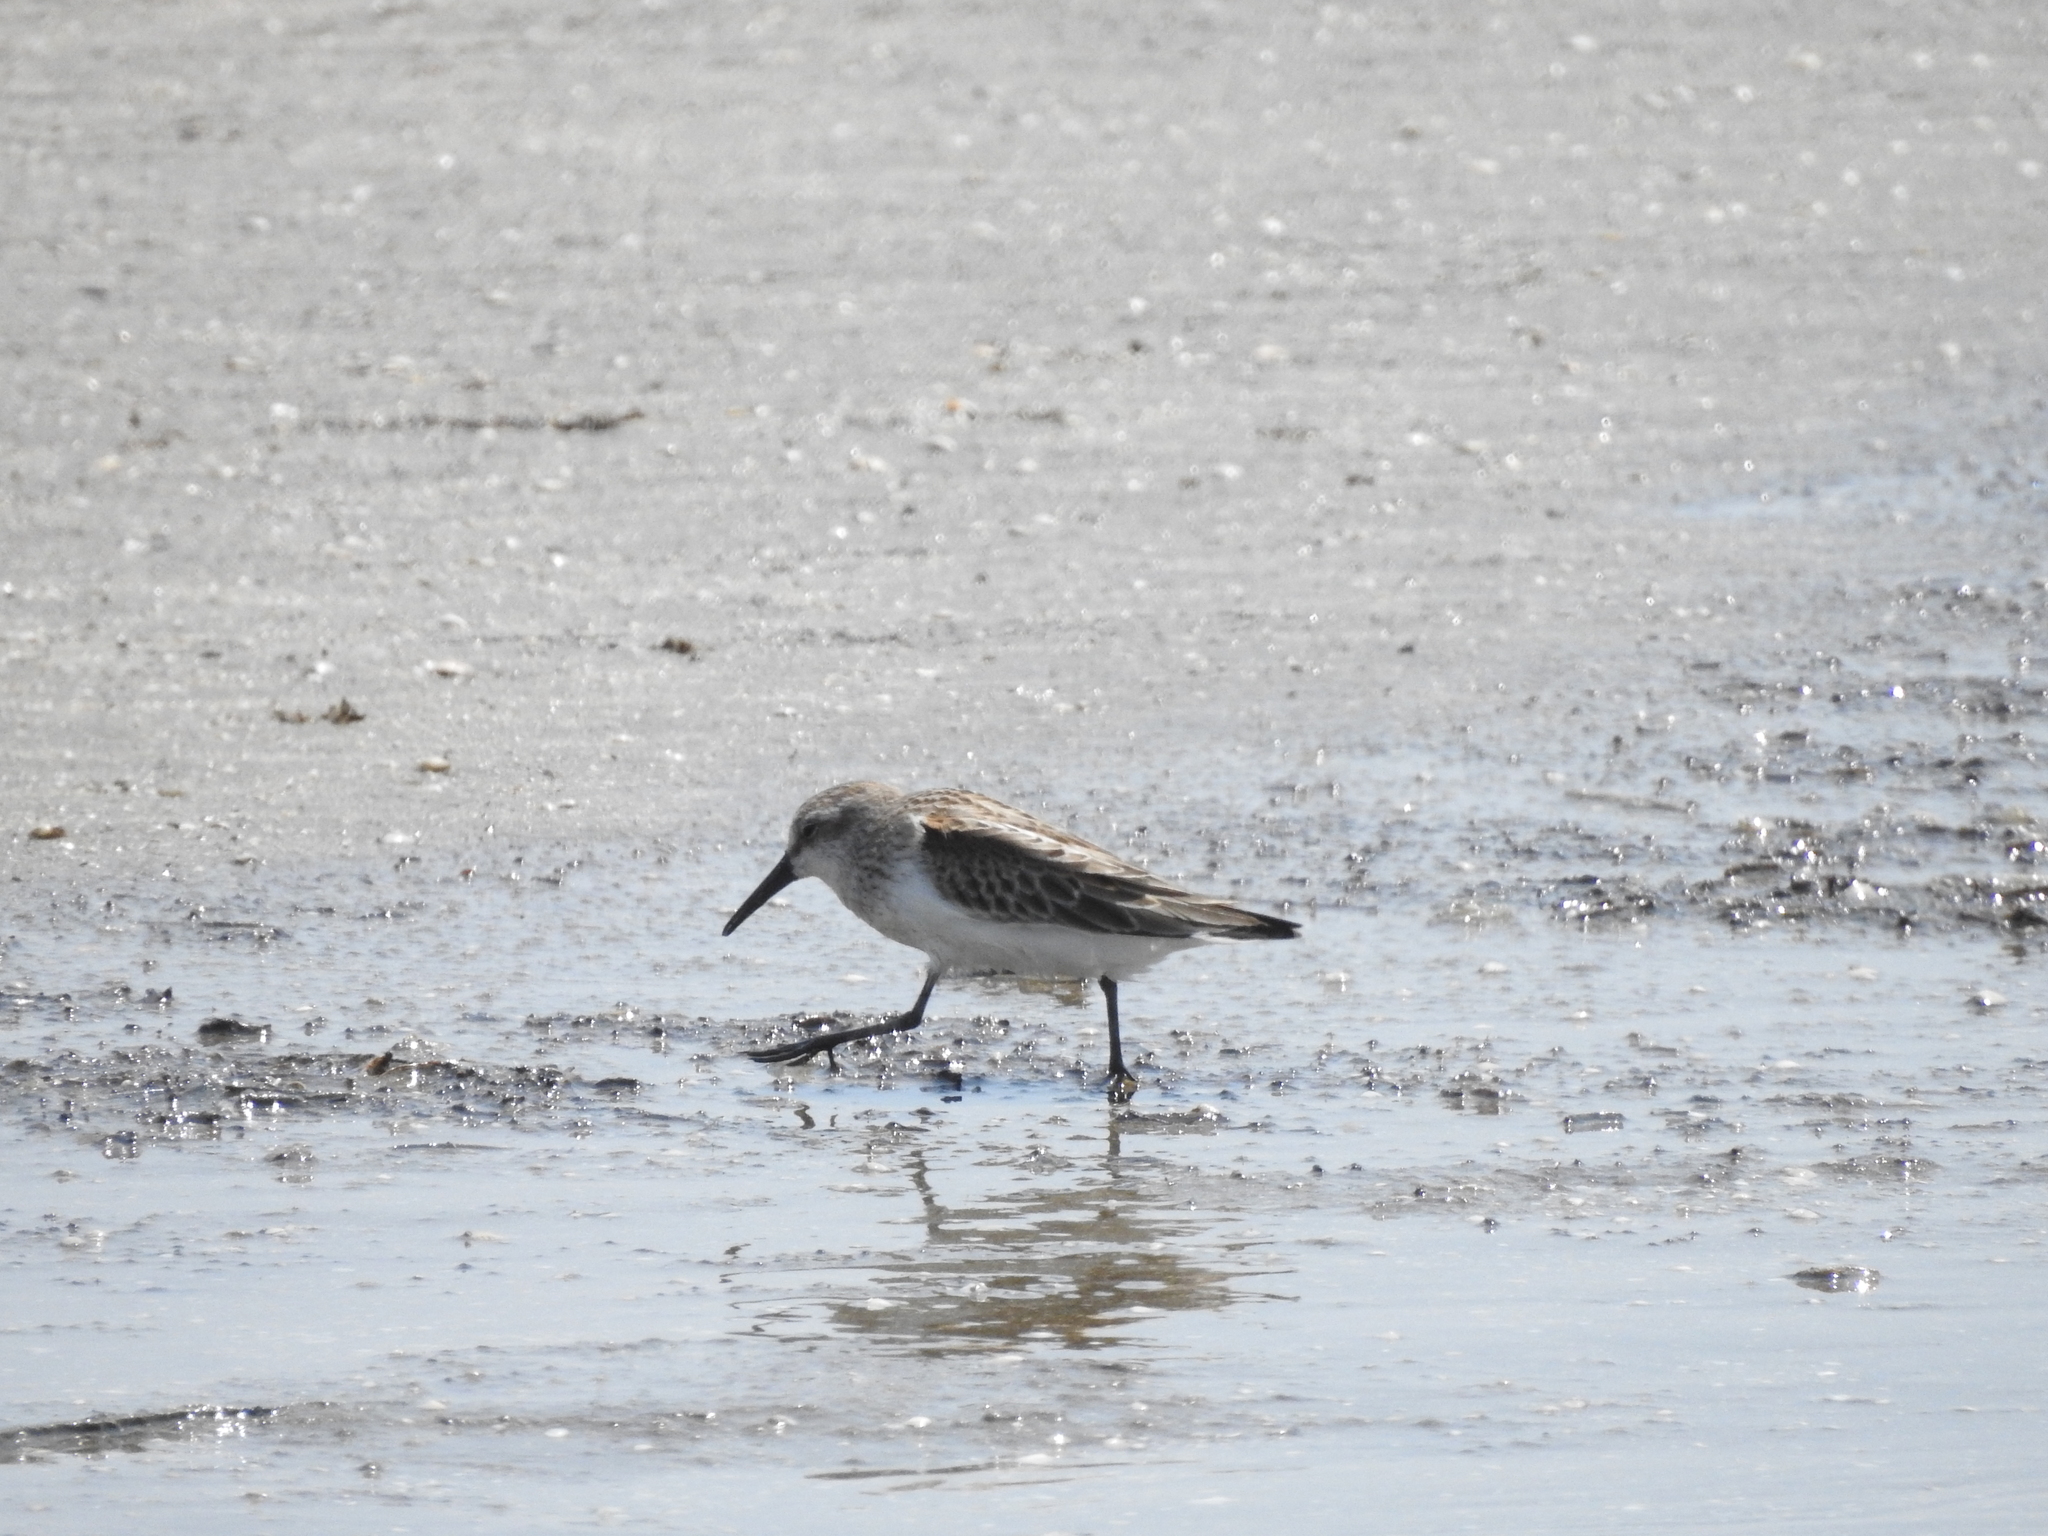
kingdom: Animalia
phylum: Chordata
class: Aves
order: Charadriiformes
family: Scolopacidae
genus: Calidris
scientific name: Calidris mauri
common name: Western sandpiper
